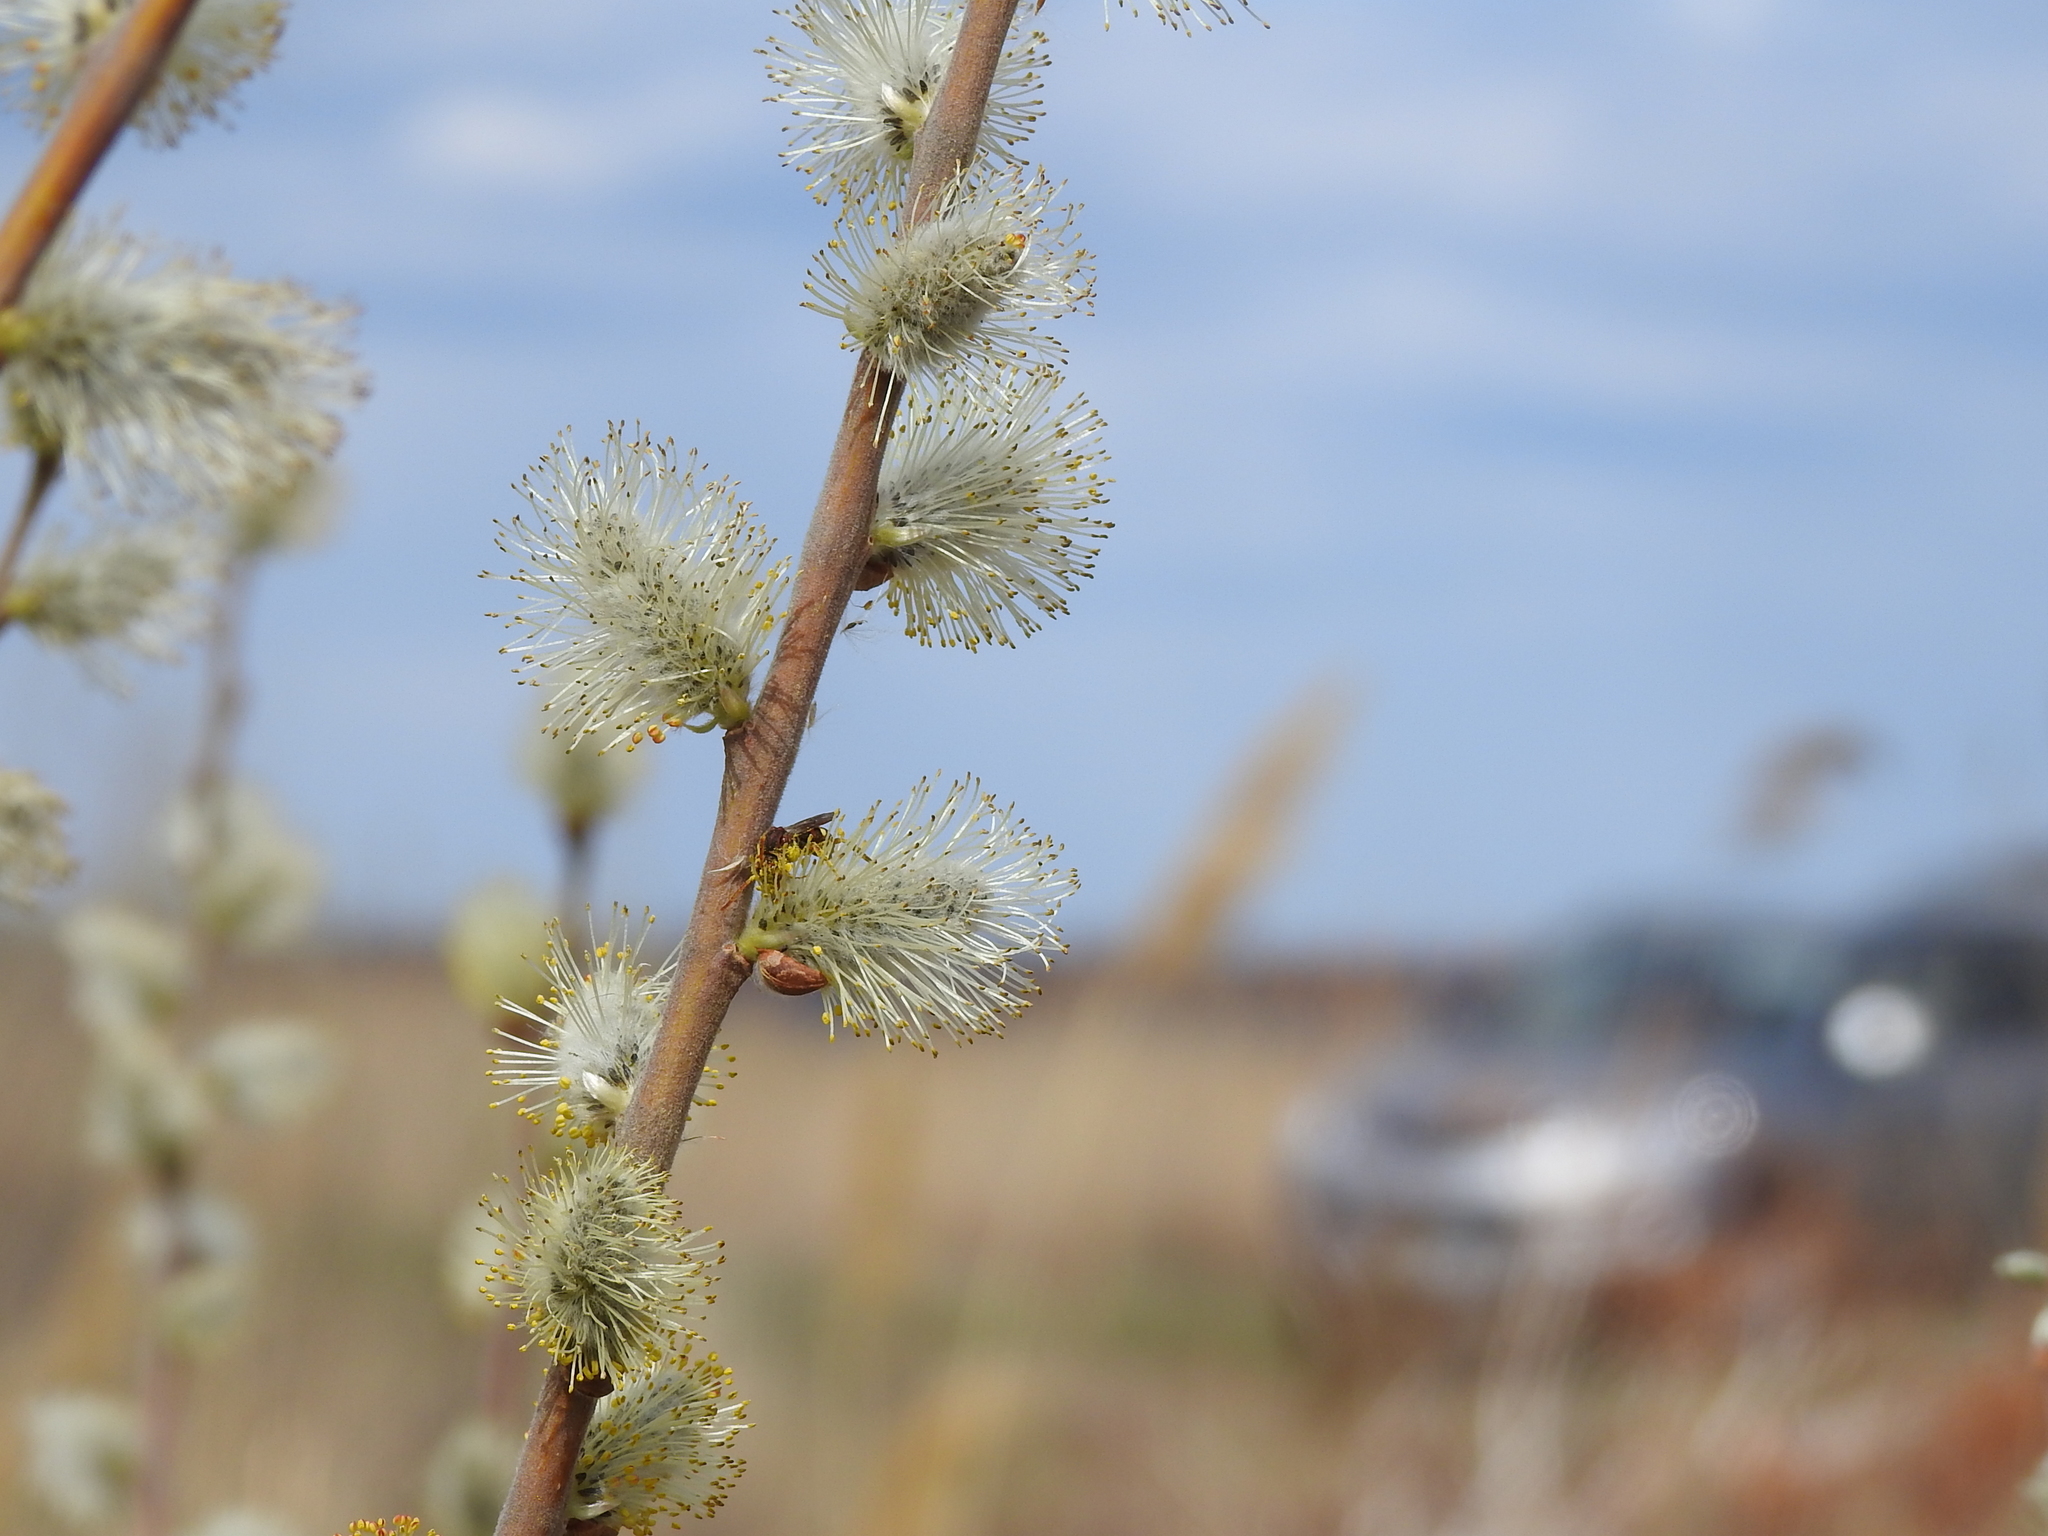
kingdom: Plantae
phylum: Tracheophyta
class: Magnoliopsida
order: Malpighiales
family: Salicaceae
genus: Salix
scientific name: Salix caprea
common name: Goat willow
